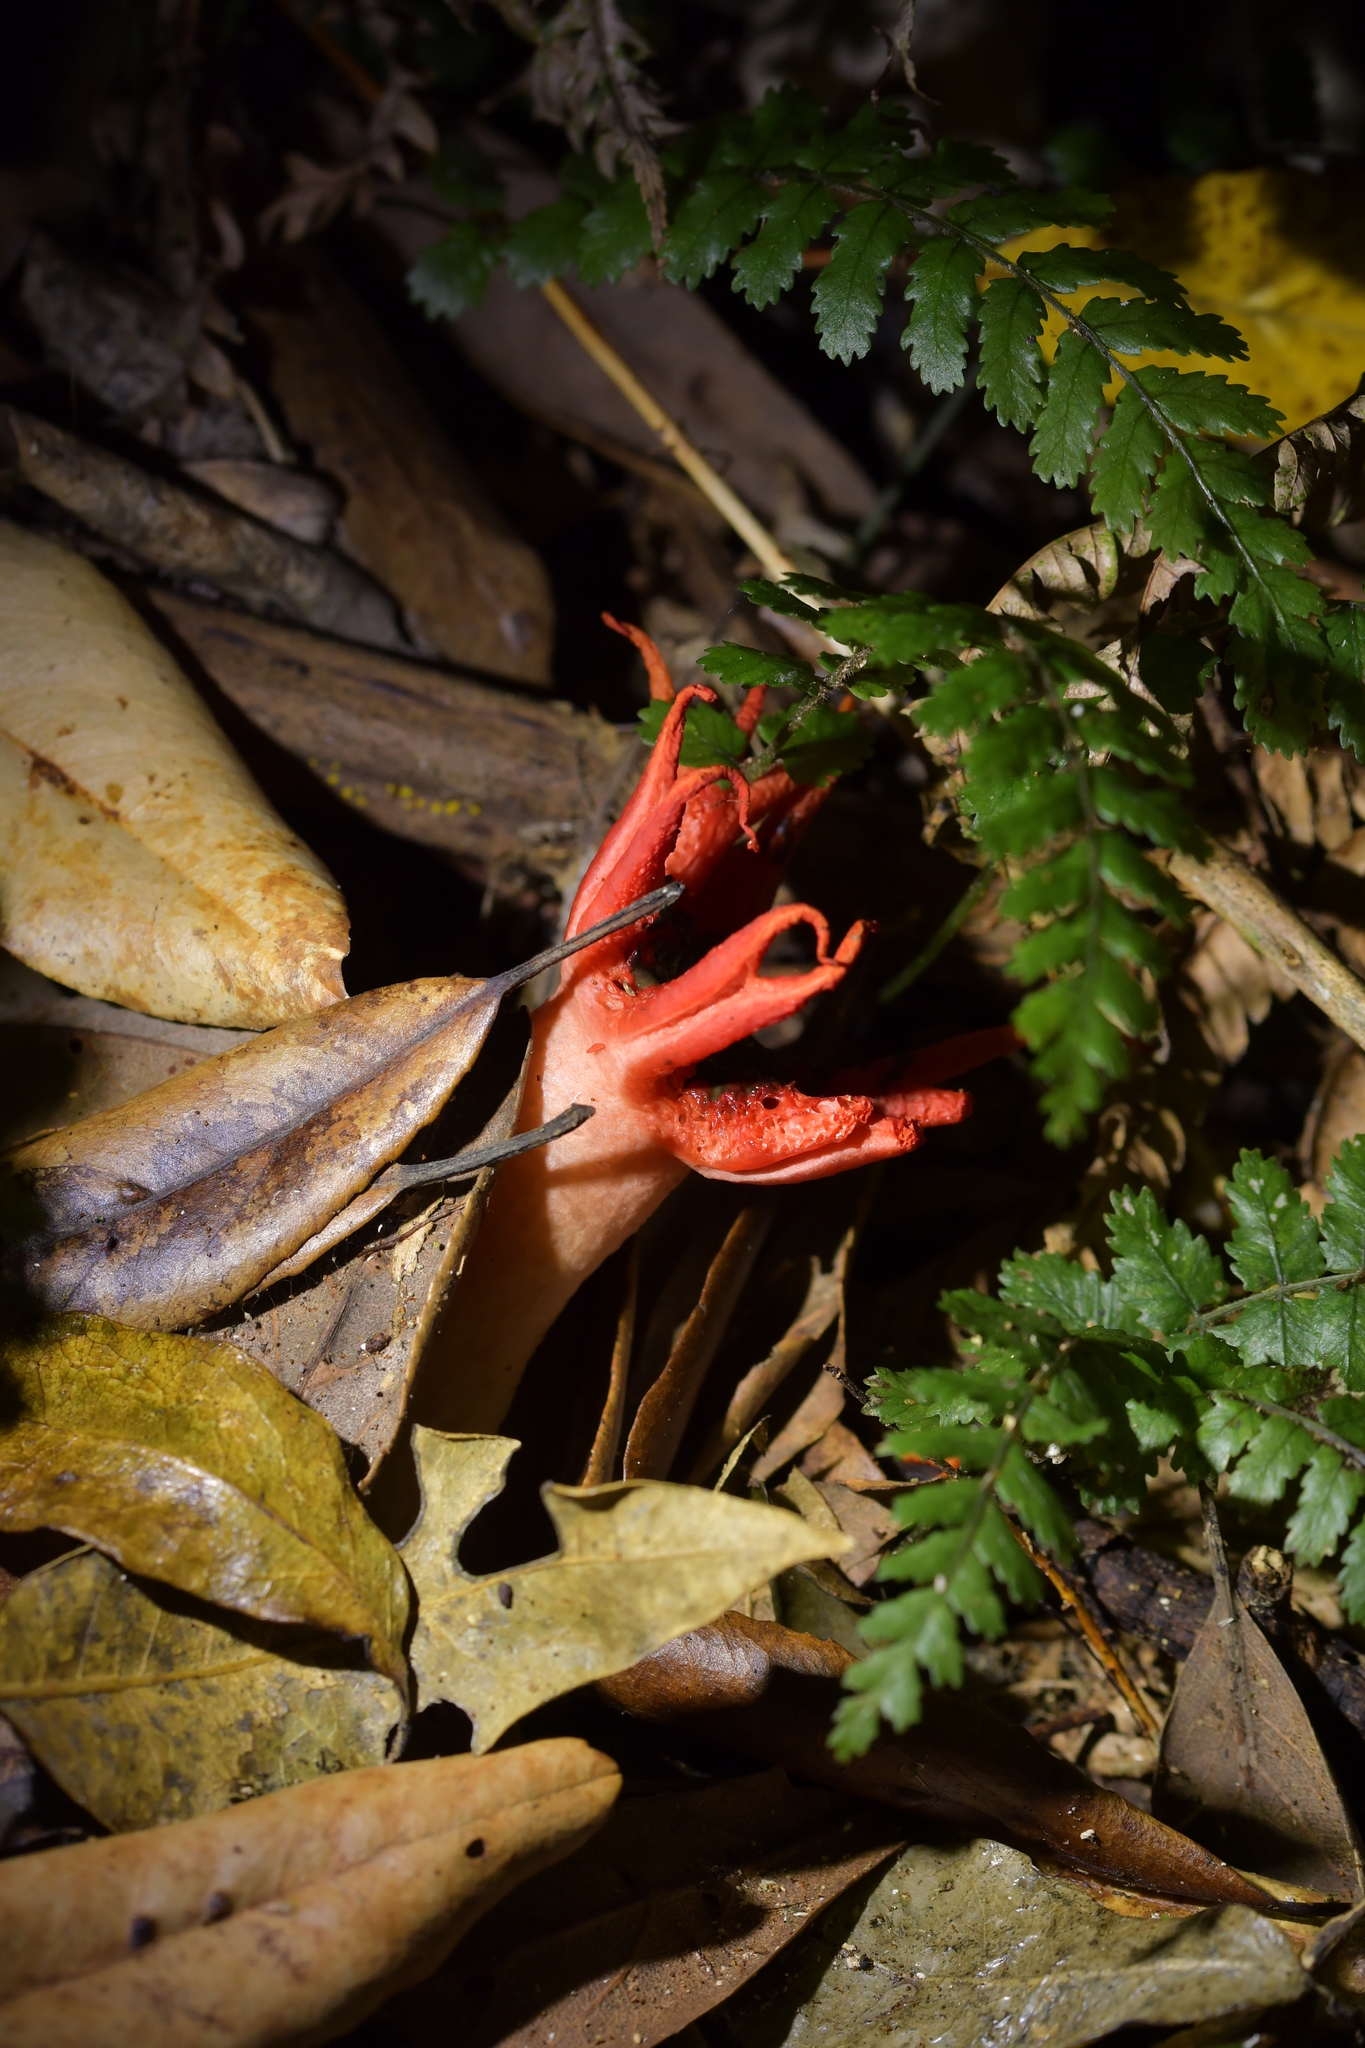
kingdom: Fungi
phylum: Basidiomycota
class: Agaricomycetes
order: Phallales
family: Phallaceae
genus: Aseroe
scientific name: Aseroe rubra
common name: Starfish fungus
